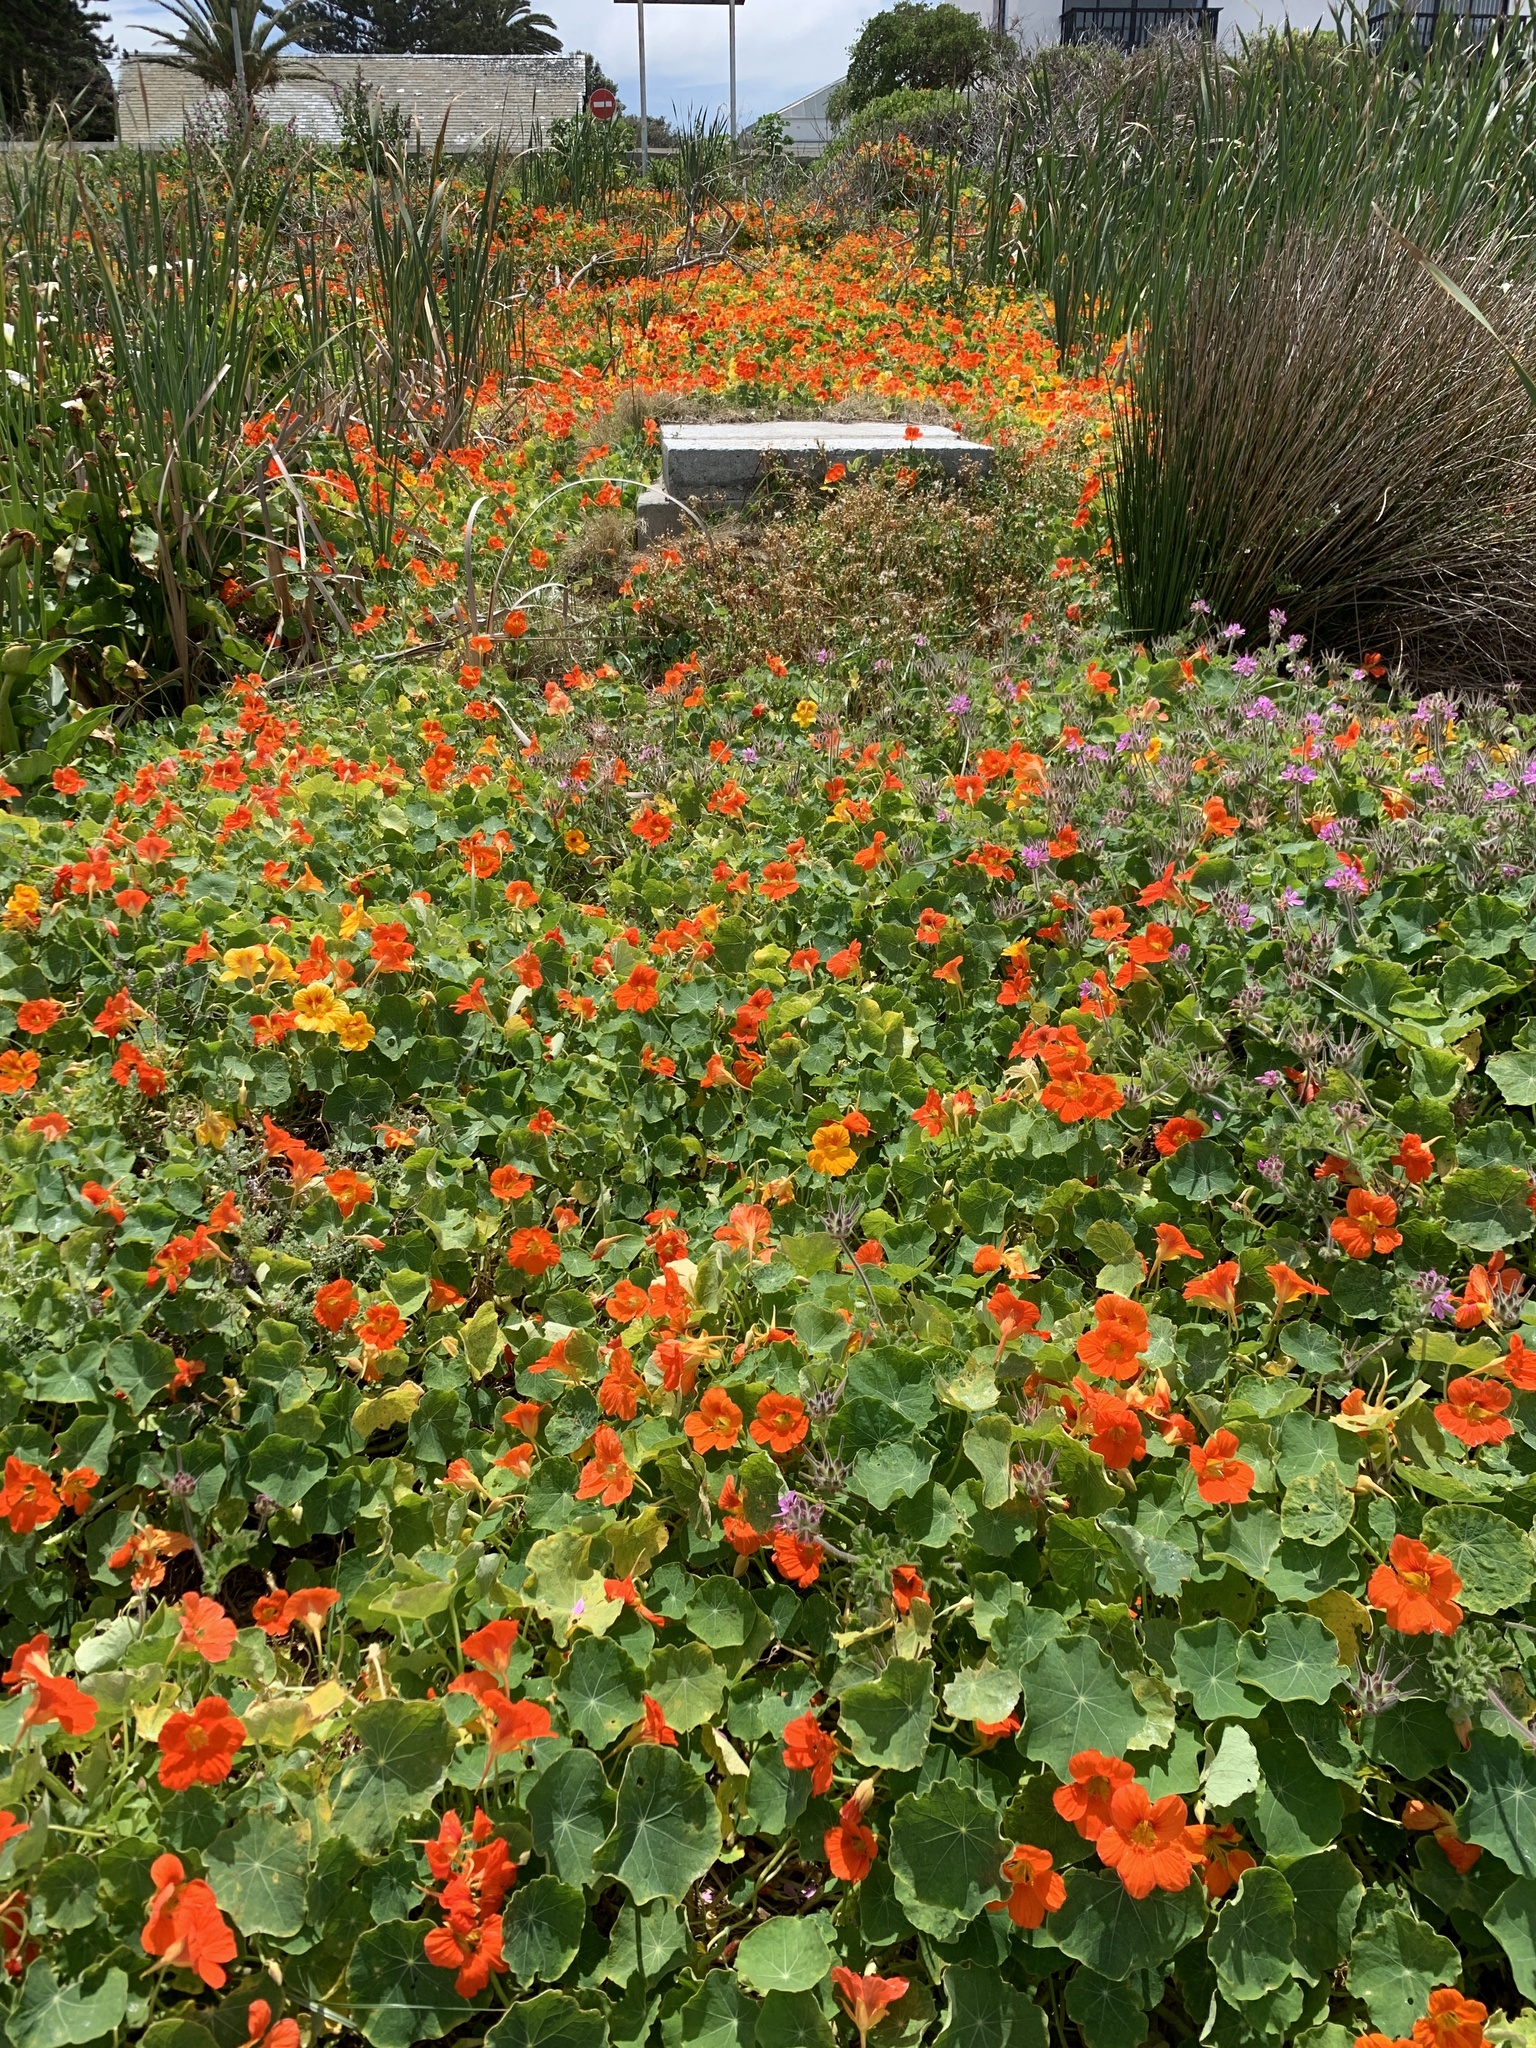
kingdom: Plantae
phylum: Tracheophyta
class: Magnoliopsida
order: Brassicales
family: Tropaeolaceae
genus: Tropaeolum
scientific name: Tropaeolum majus
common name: Nasturtium
